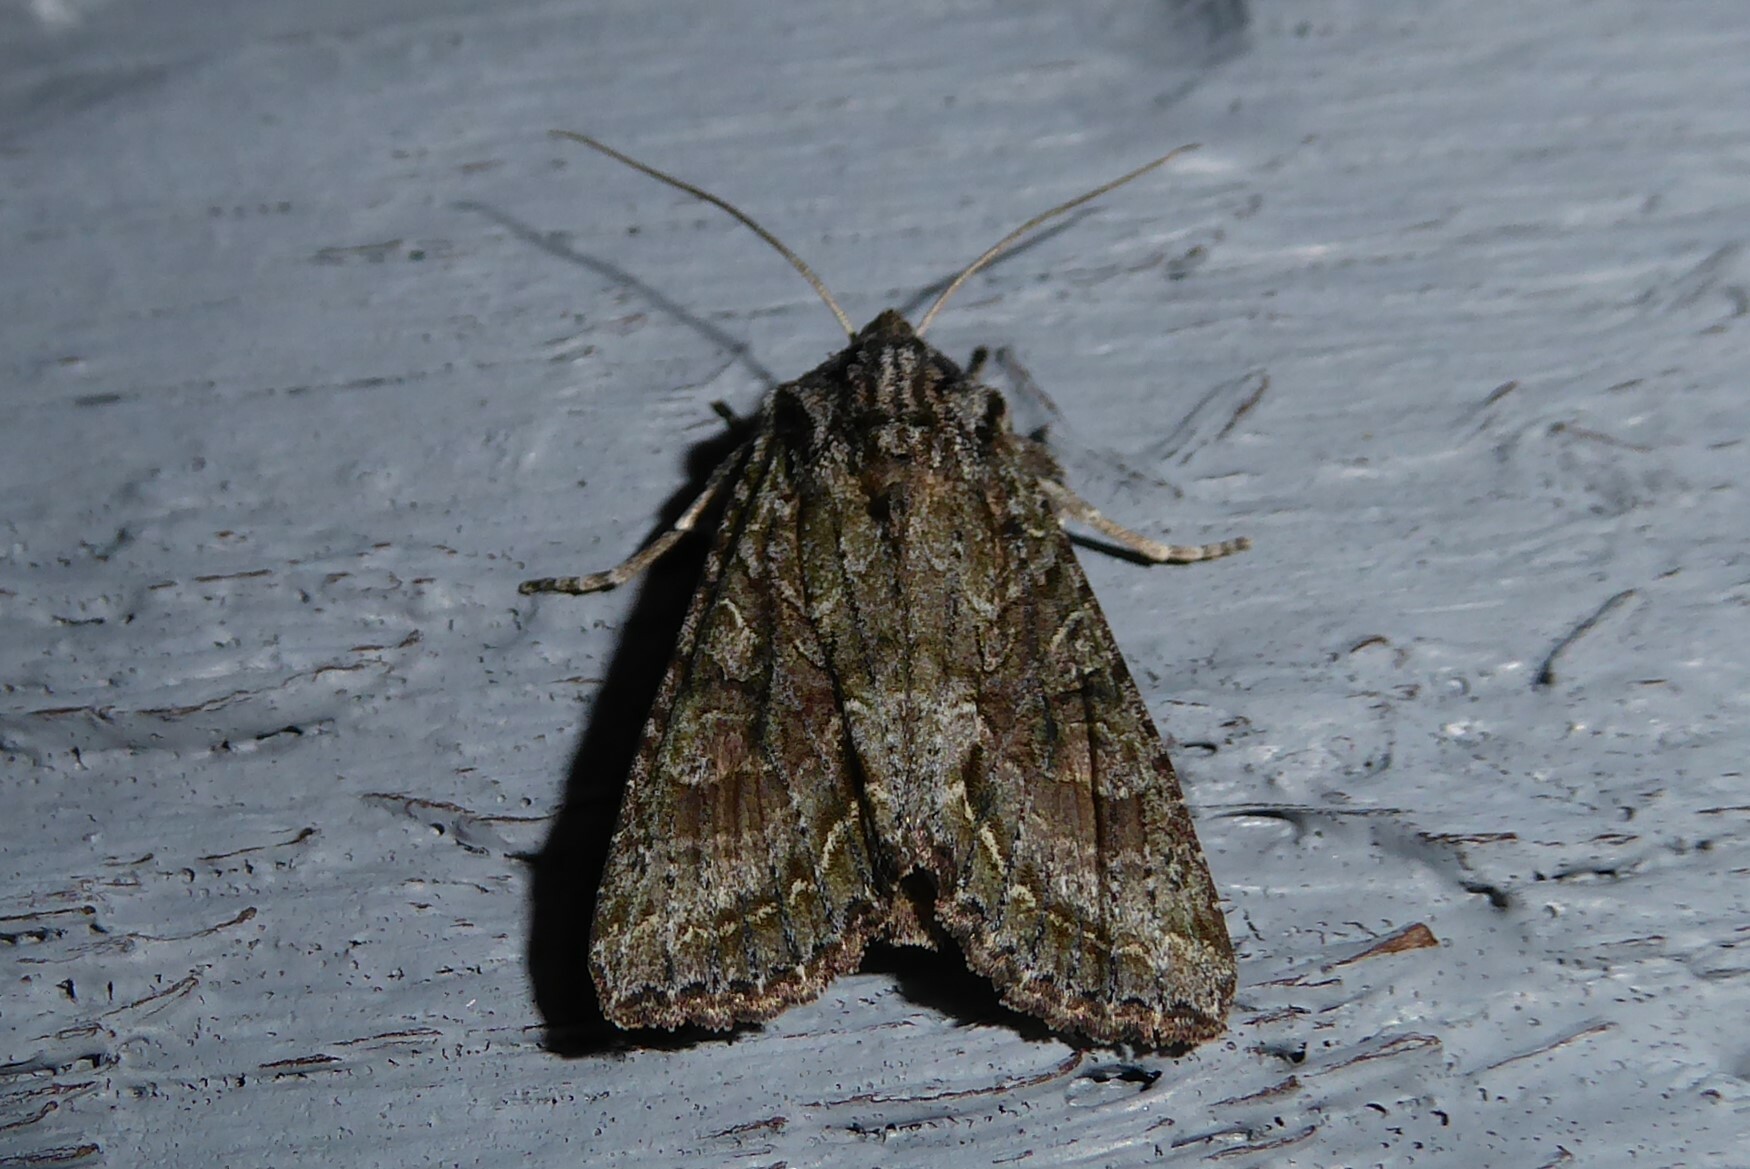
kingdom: Animalia
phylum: Arthropoda
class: Insecta
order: Lepidoptera
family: Noctuidae
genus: Ichneutica
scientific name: Ichneutica mutans
